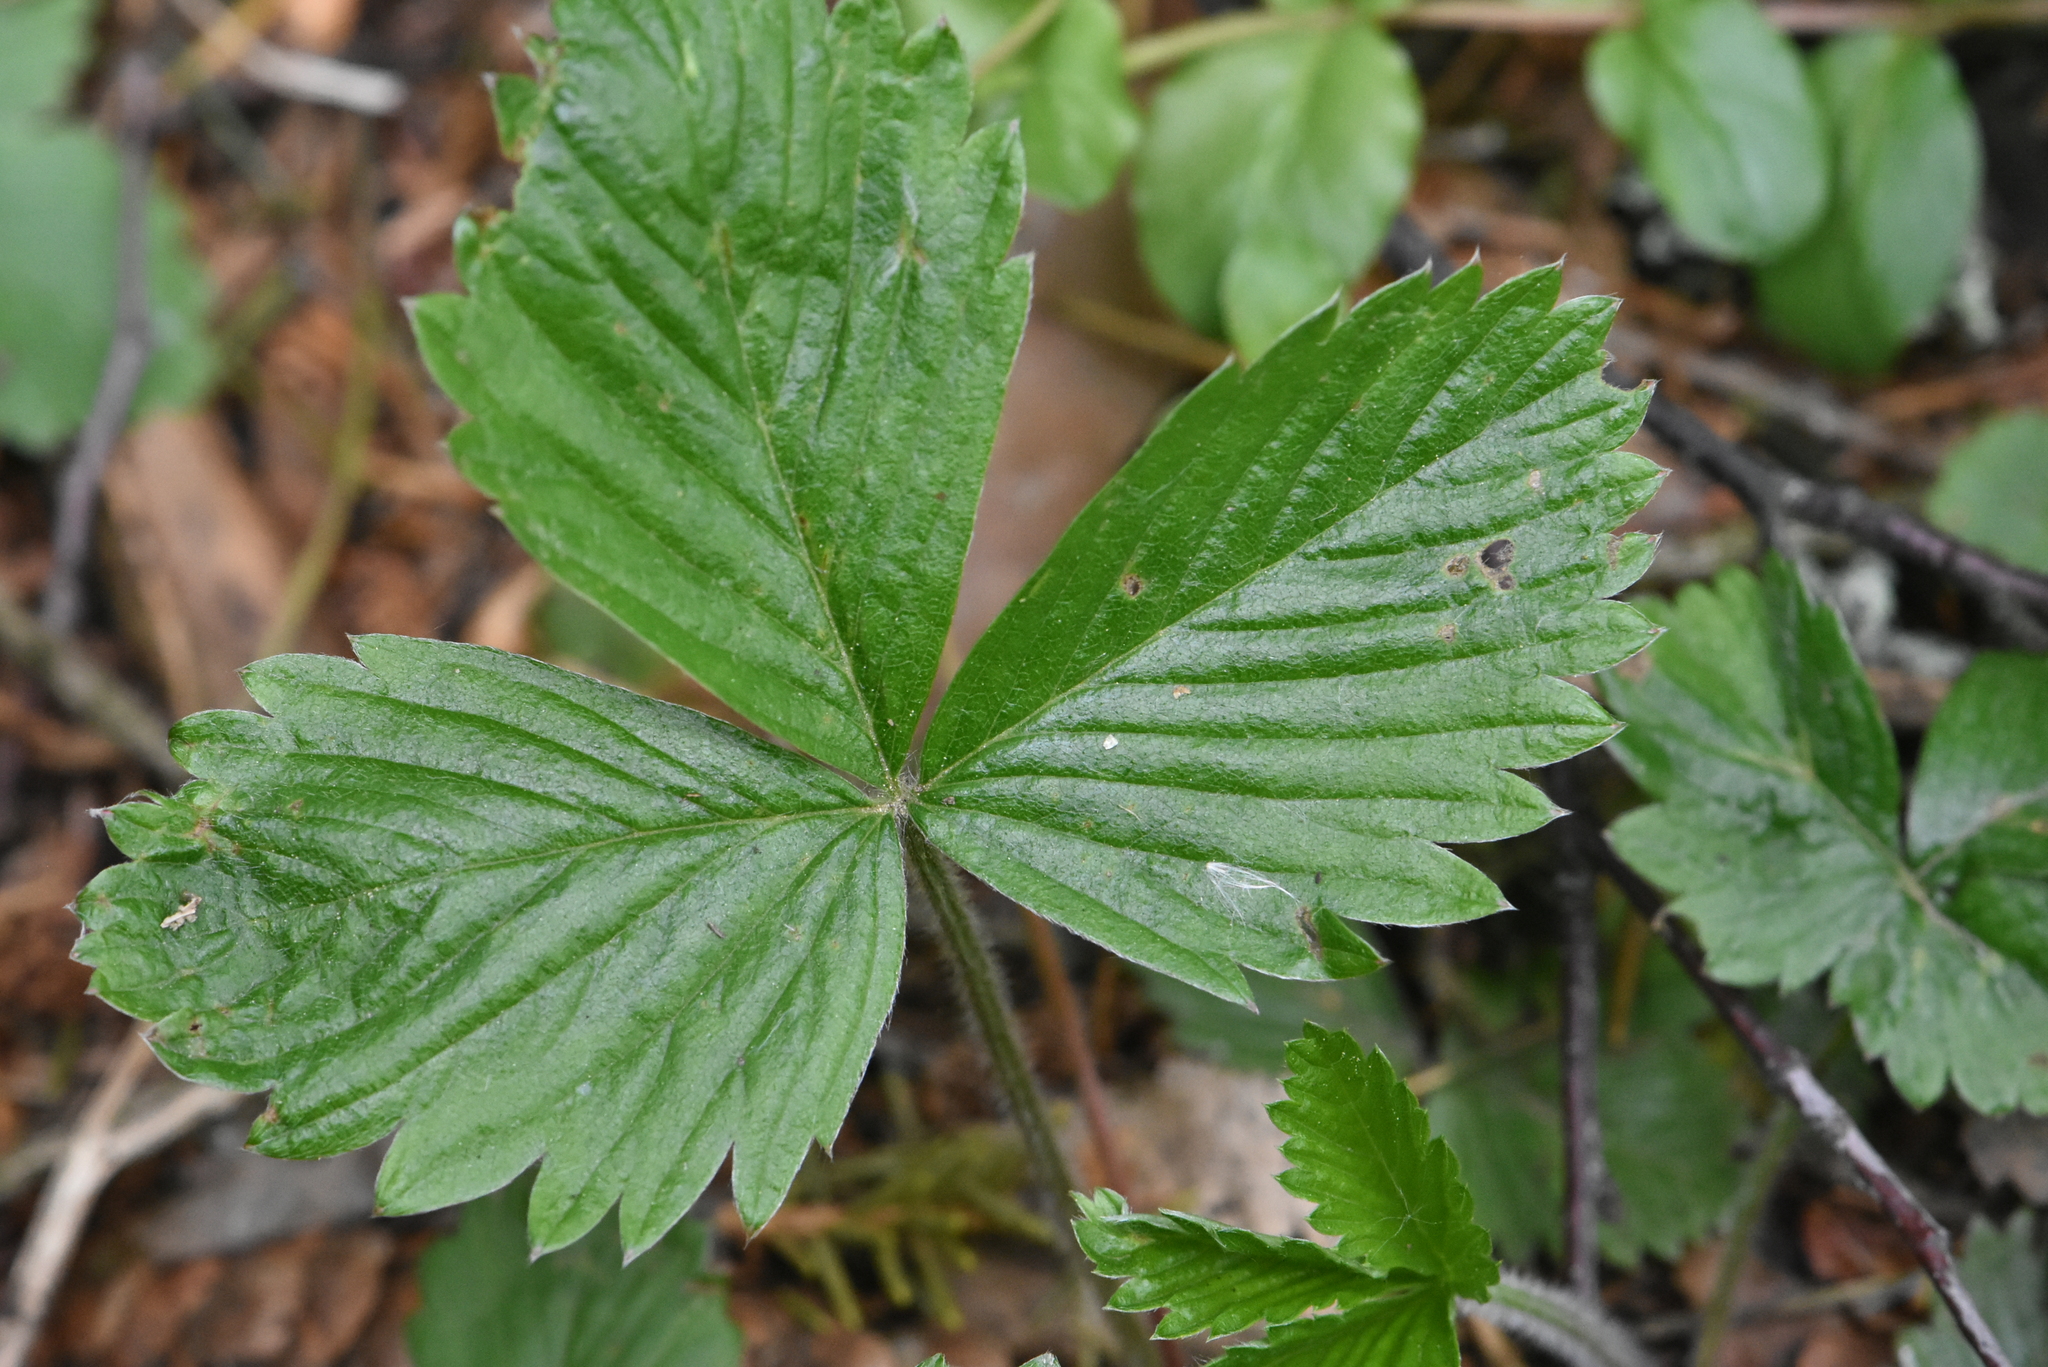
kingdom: Plantae
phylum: Tracheophyta
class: Magnoliopsida
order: Rosales
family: Rosaceae
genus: Fragaria
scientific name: Fragaria vesca
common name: Wild strawberry
